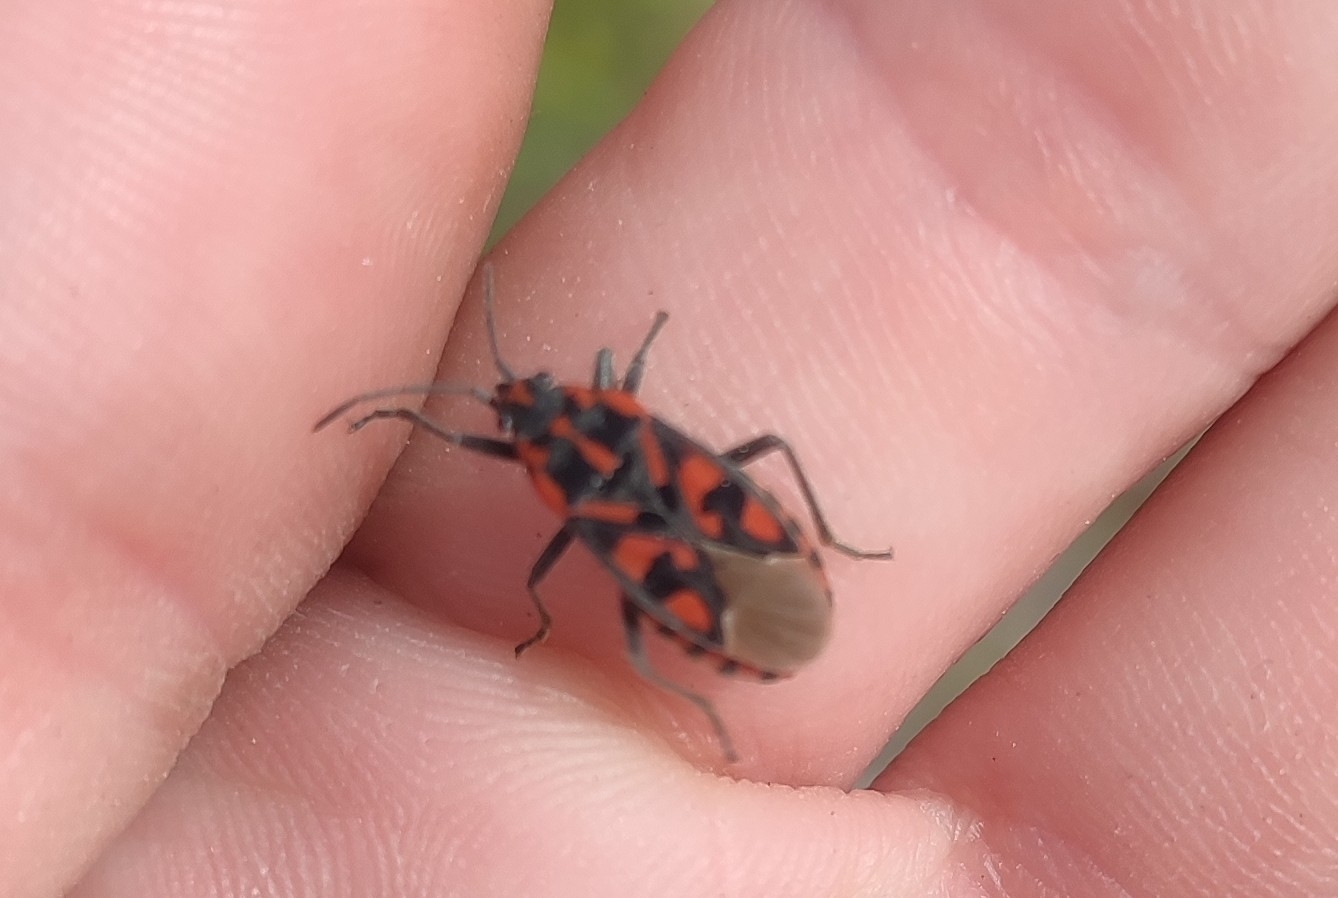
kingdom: Animalia
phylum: Arthropoda
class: Insecta
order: Hemiptera
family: Lygaeidae
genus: Spilostethus
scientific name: Spilostethus saxatilis
